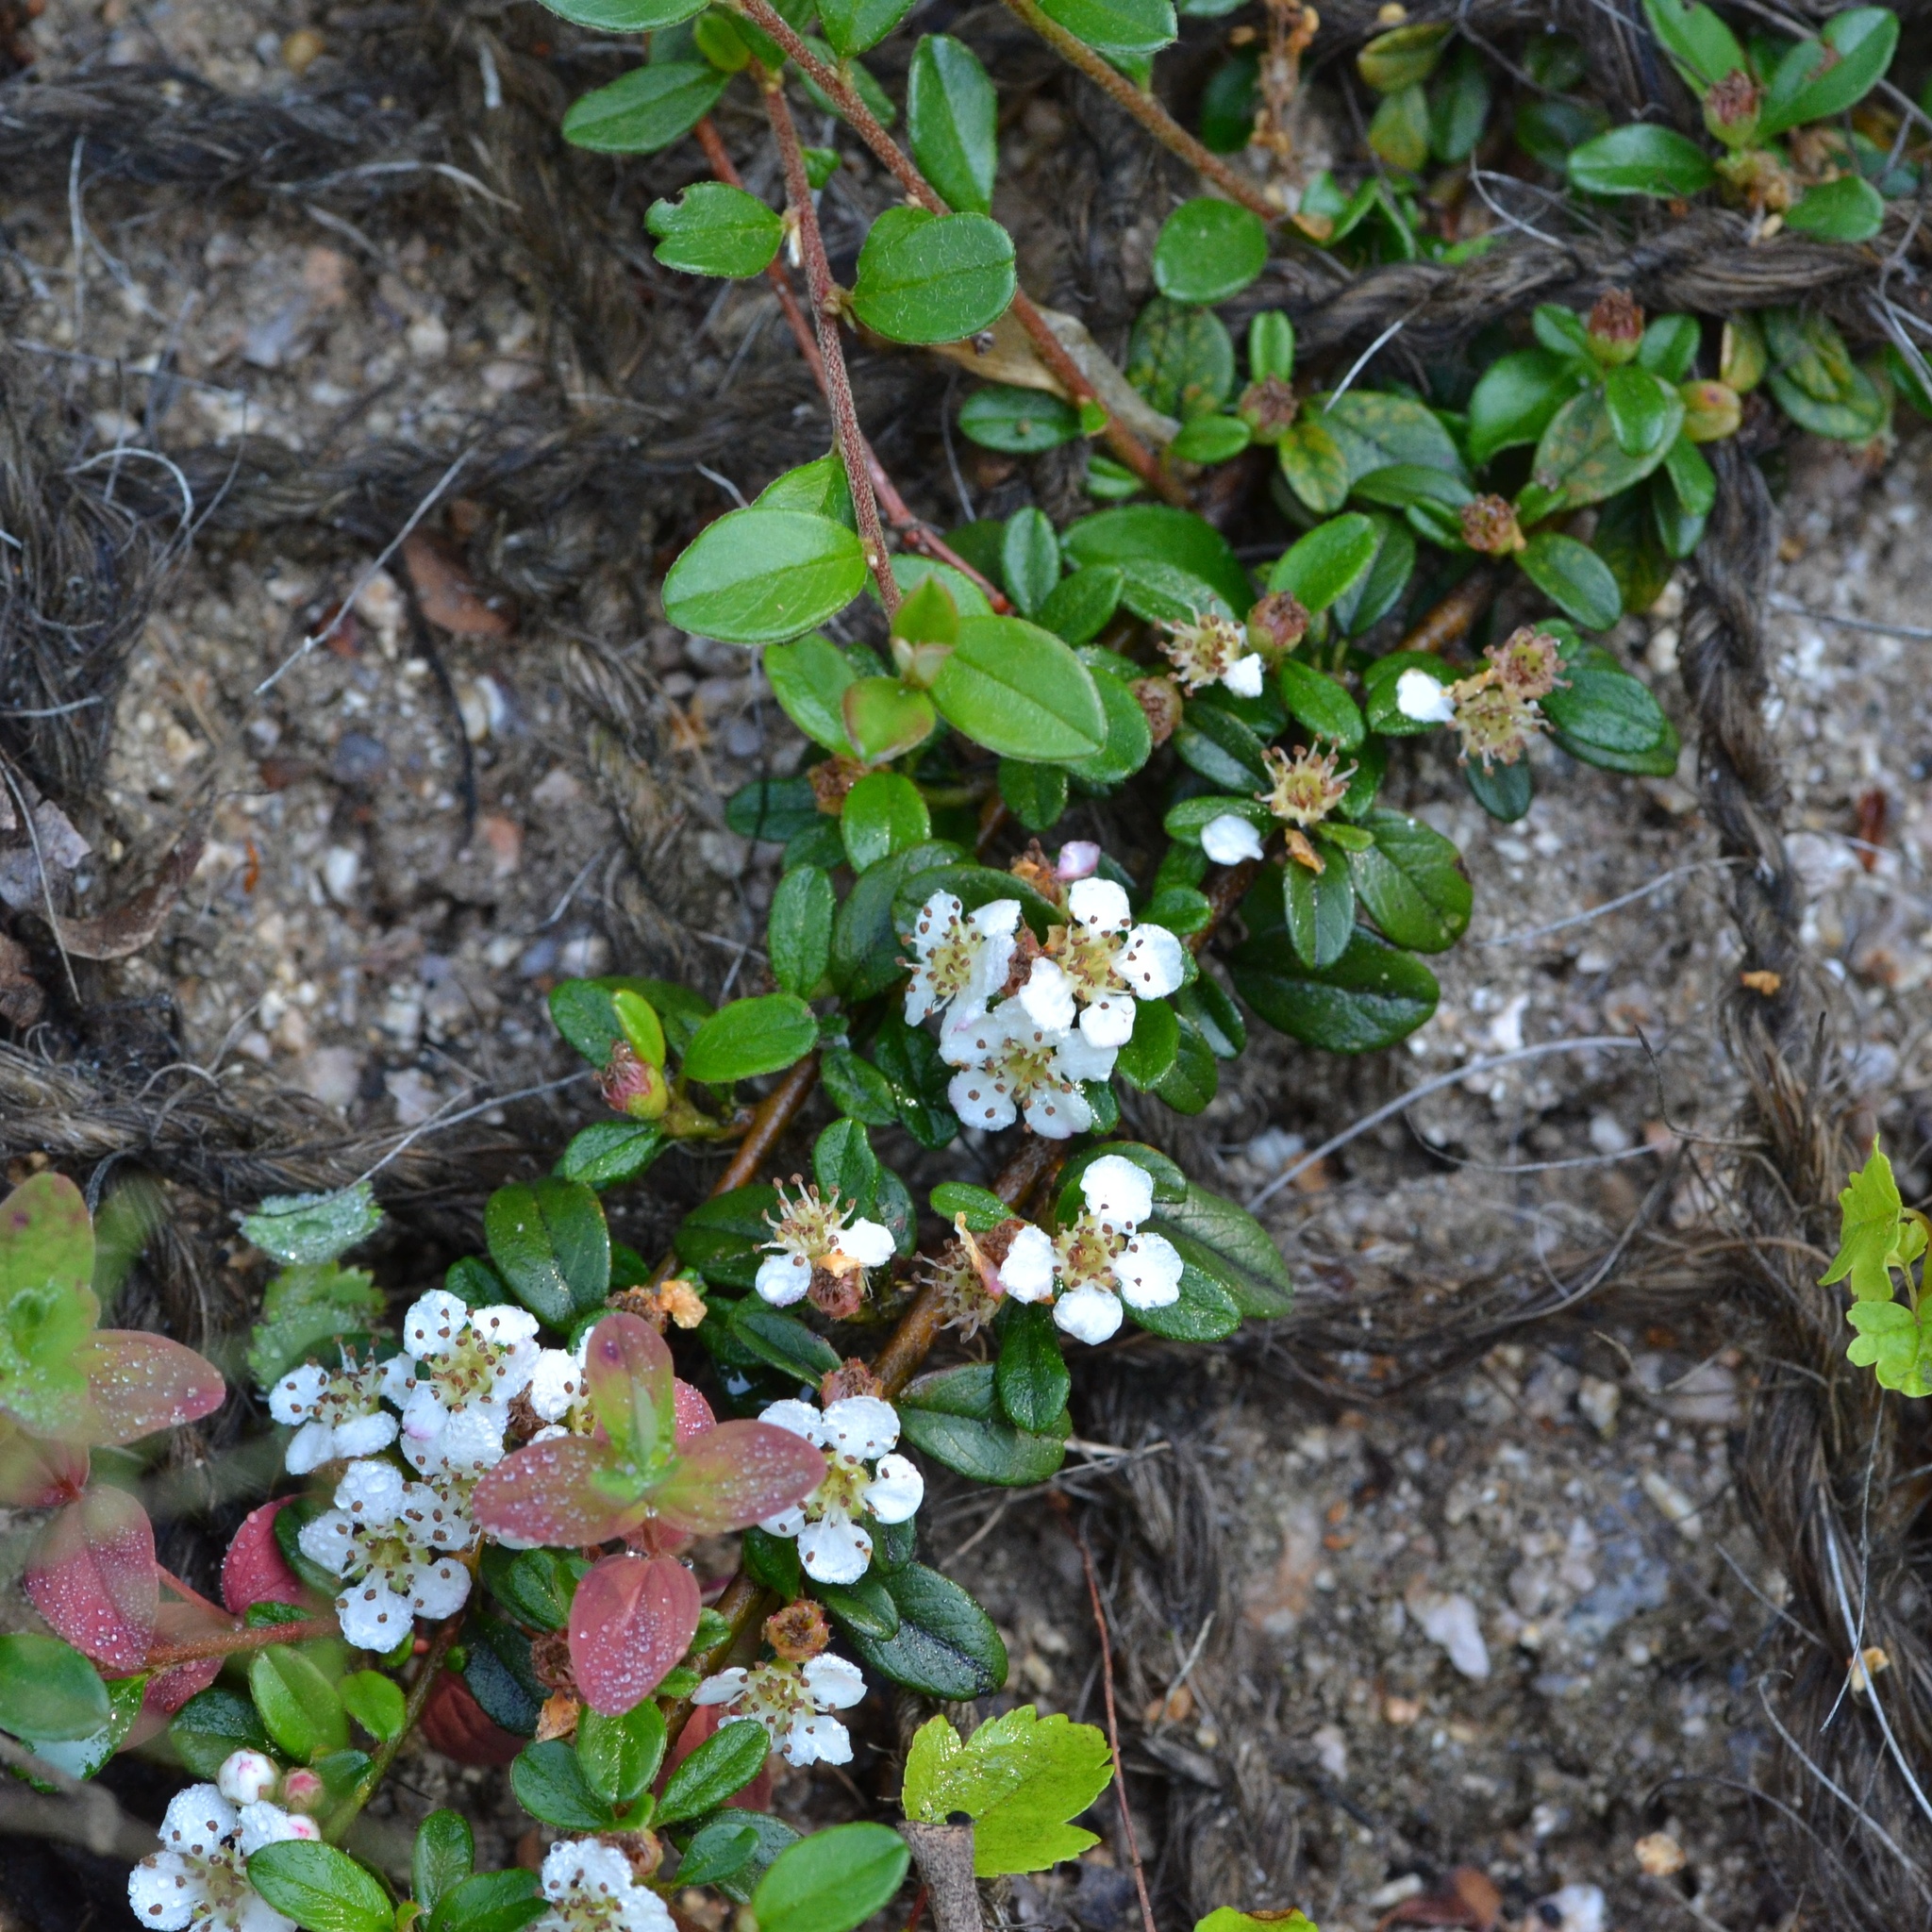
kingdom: Plantae
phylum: Tracheophyta
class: Magnoliopsida
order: Rosales
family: Rosaceae
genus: Cotoneaster
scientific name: Cotoneaster suecicus
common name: Swedish cotoneaster
